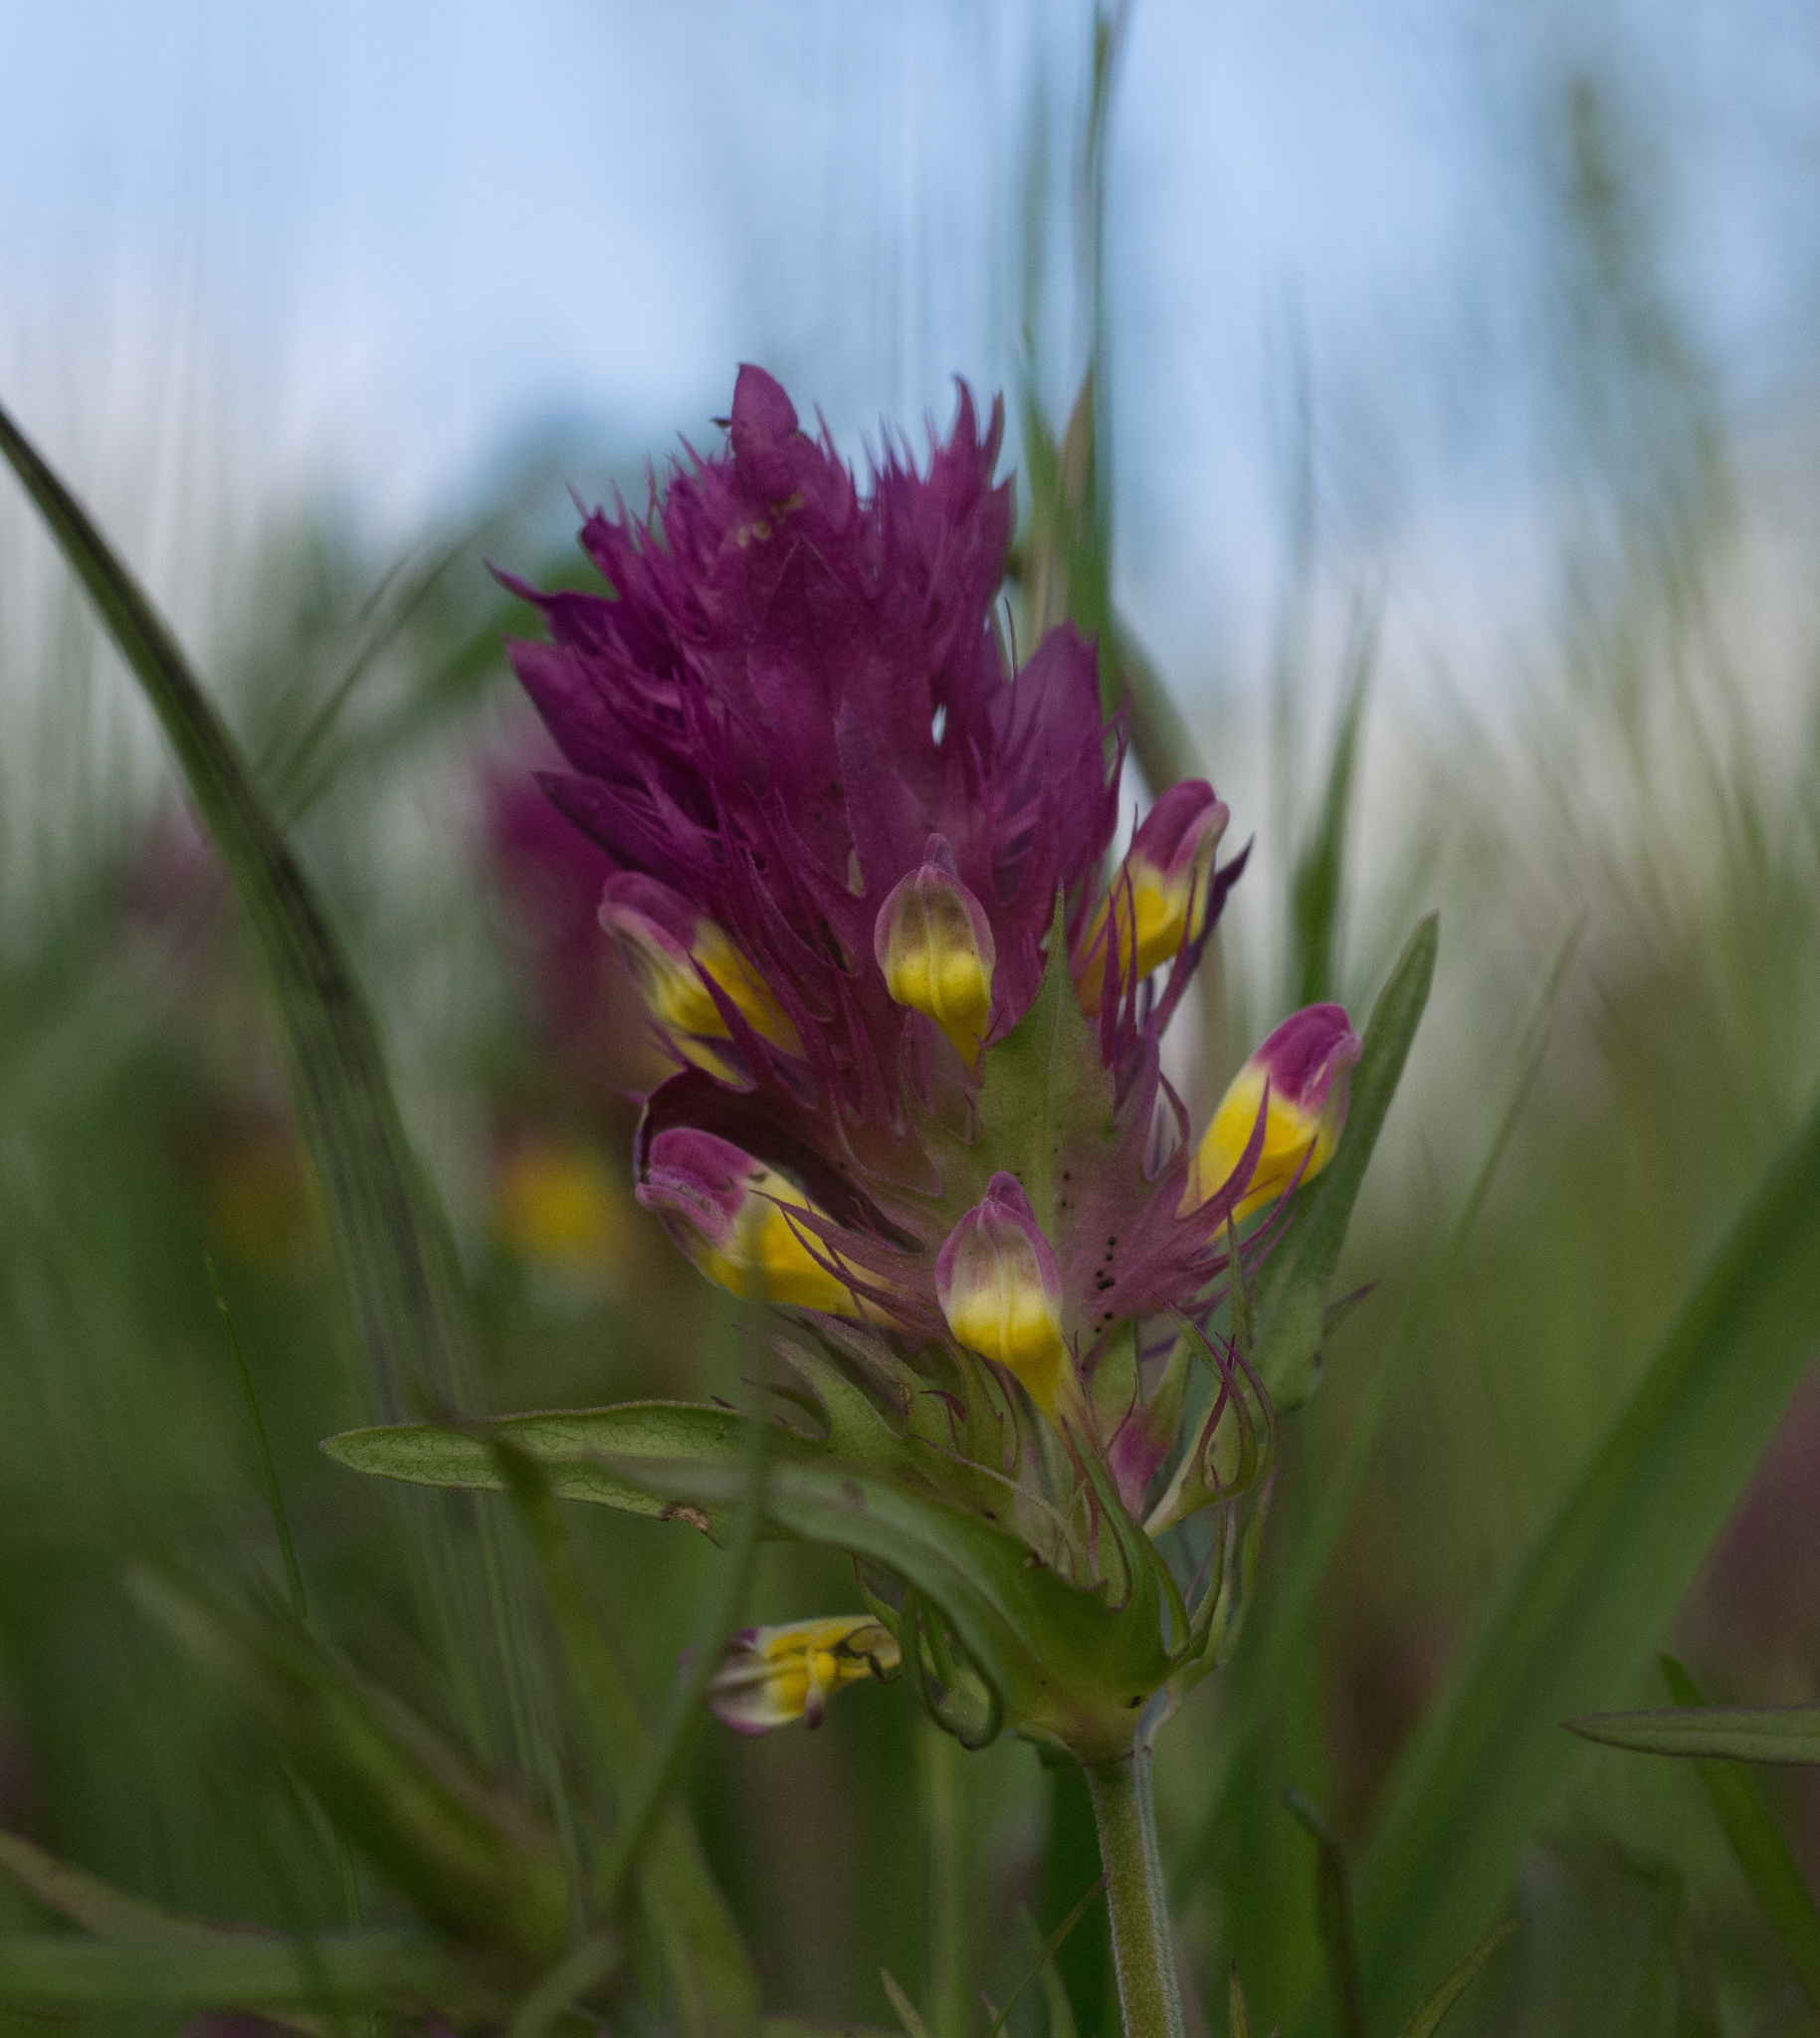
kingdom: Plantae
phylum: Tracheophyta
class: Magnoliopsida
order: Lamiales
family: Orobanchaceae
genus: Melampyrum
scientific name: Melampyrum arvense
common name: Field cow-wheat
